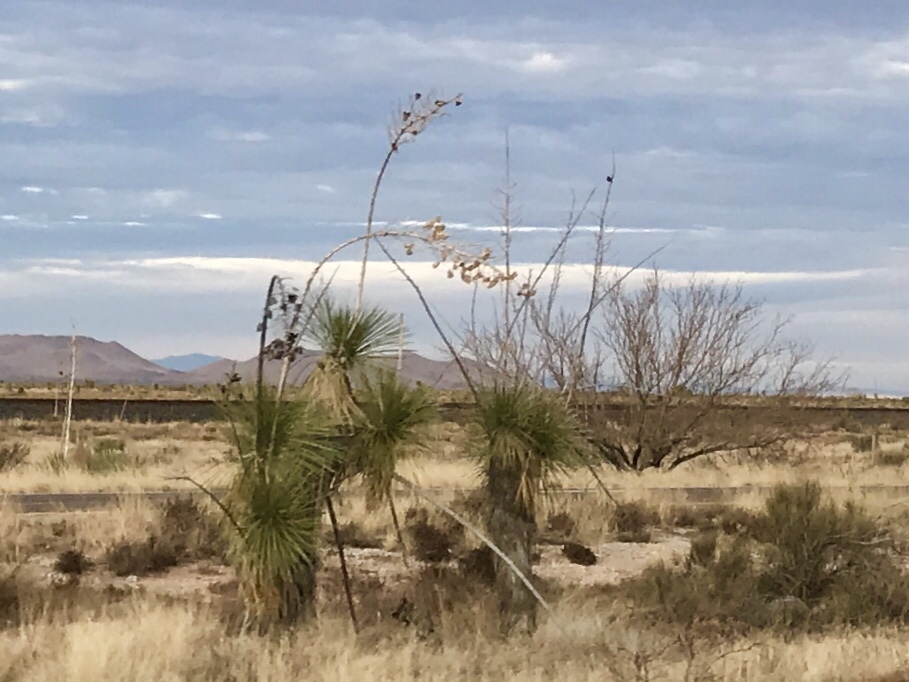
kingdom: Plantae
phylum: Tracheophyta
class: Liliopsida
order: Asparagales
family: Asparagaceae
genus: Yucca
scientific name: Yucca elata
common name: Palmella
